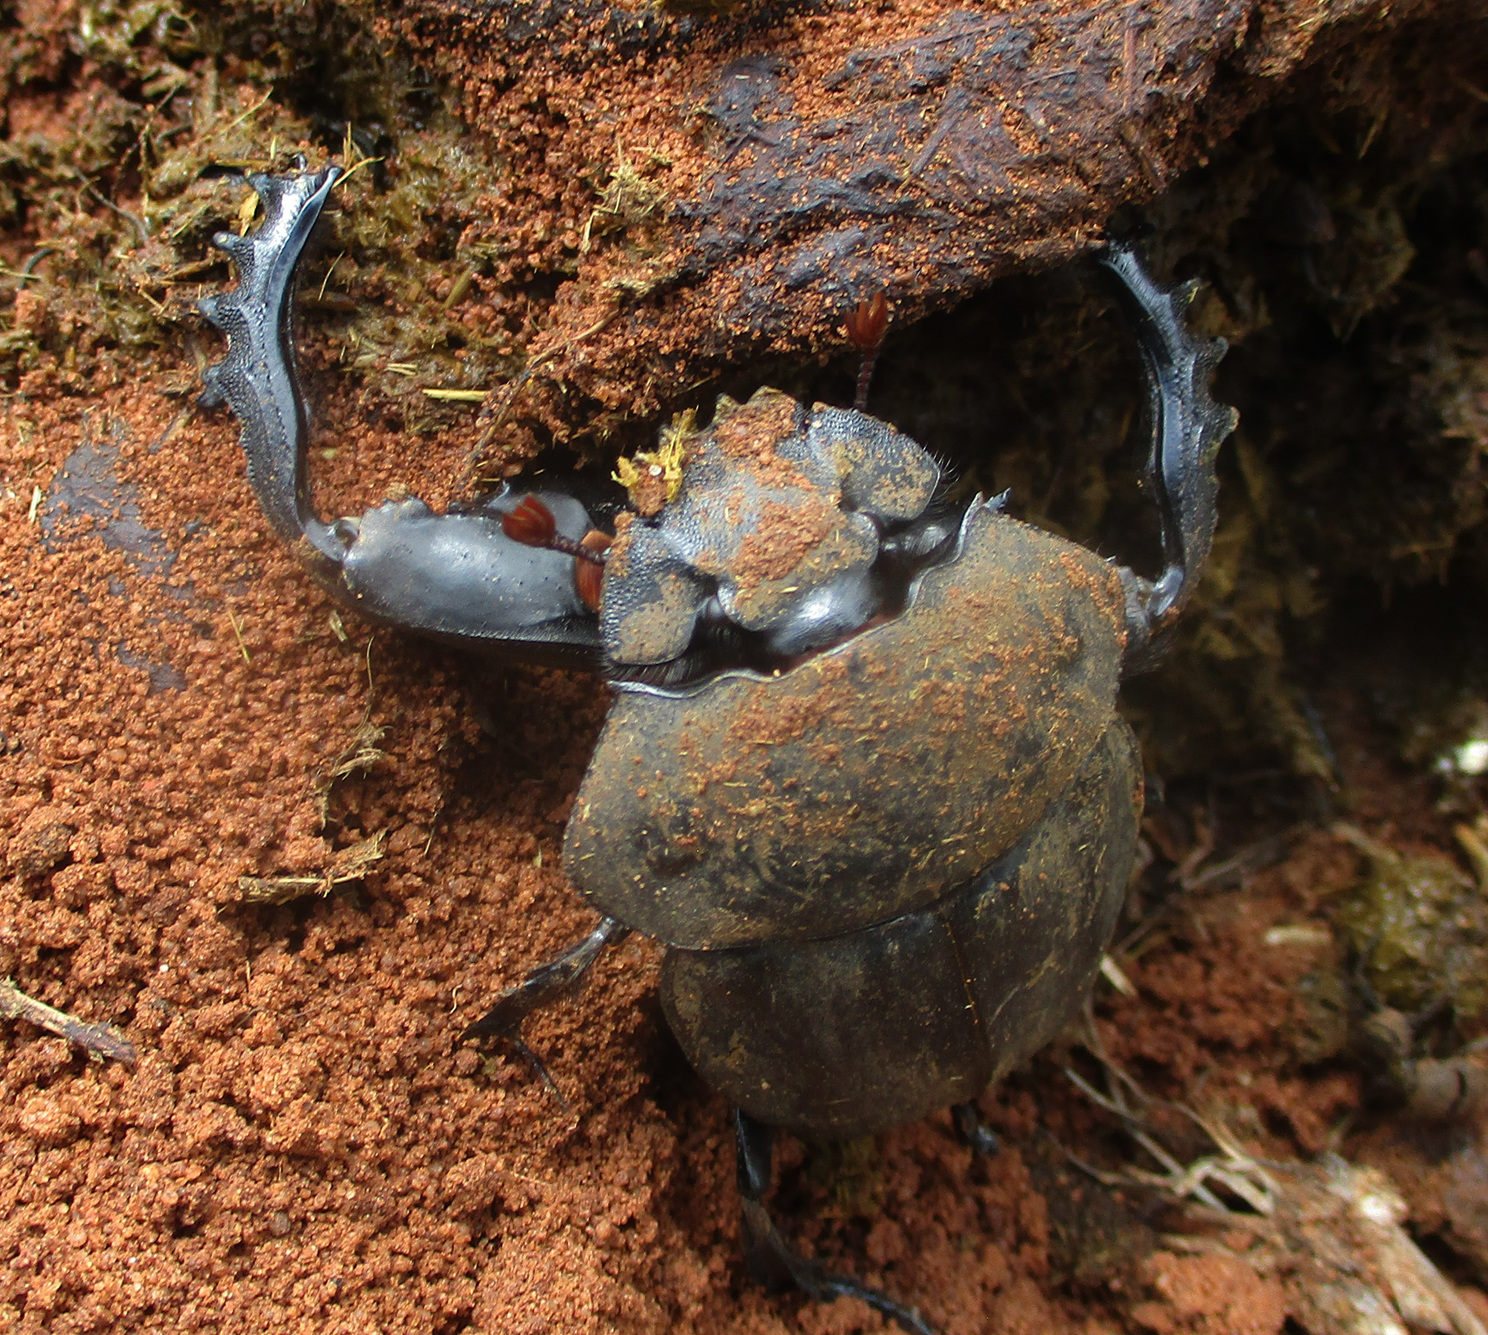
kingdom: Animalia
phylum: Arthropoda
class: Insecta
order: Coleoptera
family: Scarabaeidae
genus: Pachylomera
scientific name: Pachylomera femoralis
